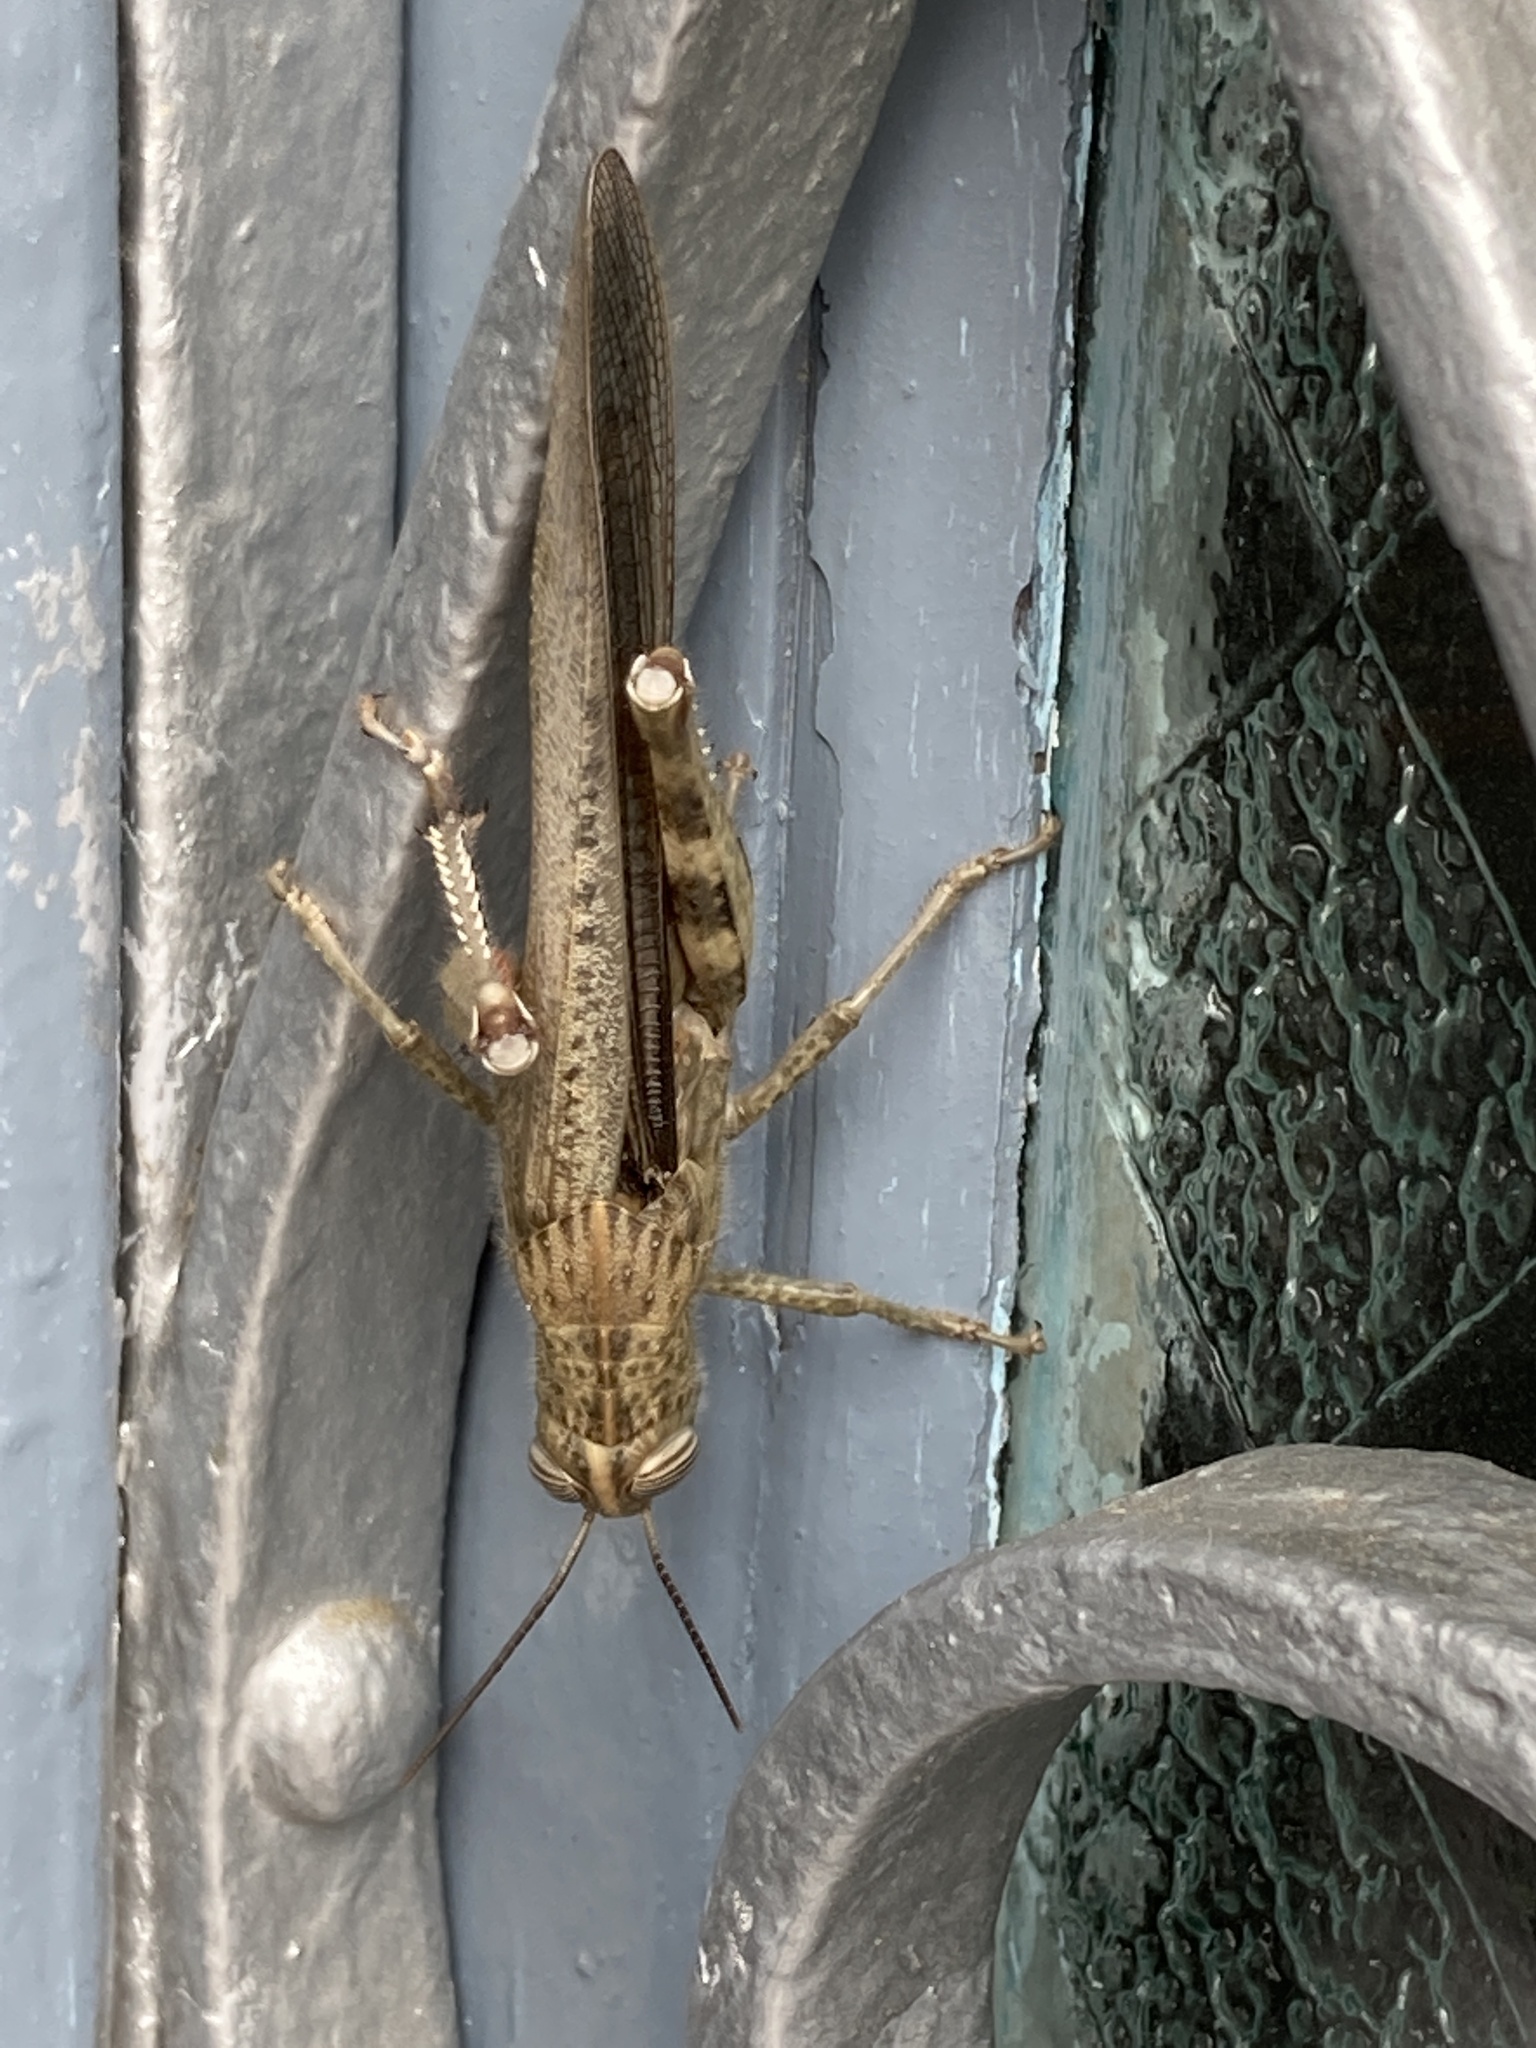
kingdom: Animalia
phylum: Arthropoda
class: Insecta
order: Orthoptera
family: Acrididae
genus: Anacridium
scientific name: Anacridium aegyptium
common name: Egyptian grasshopper
